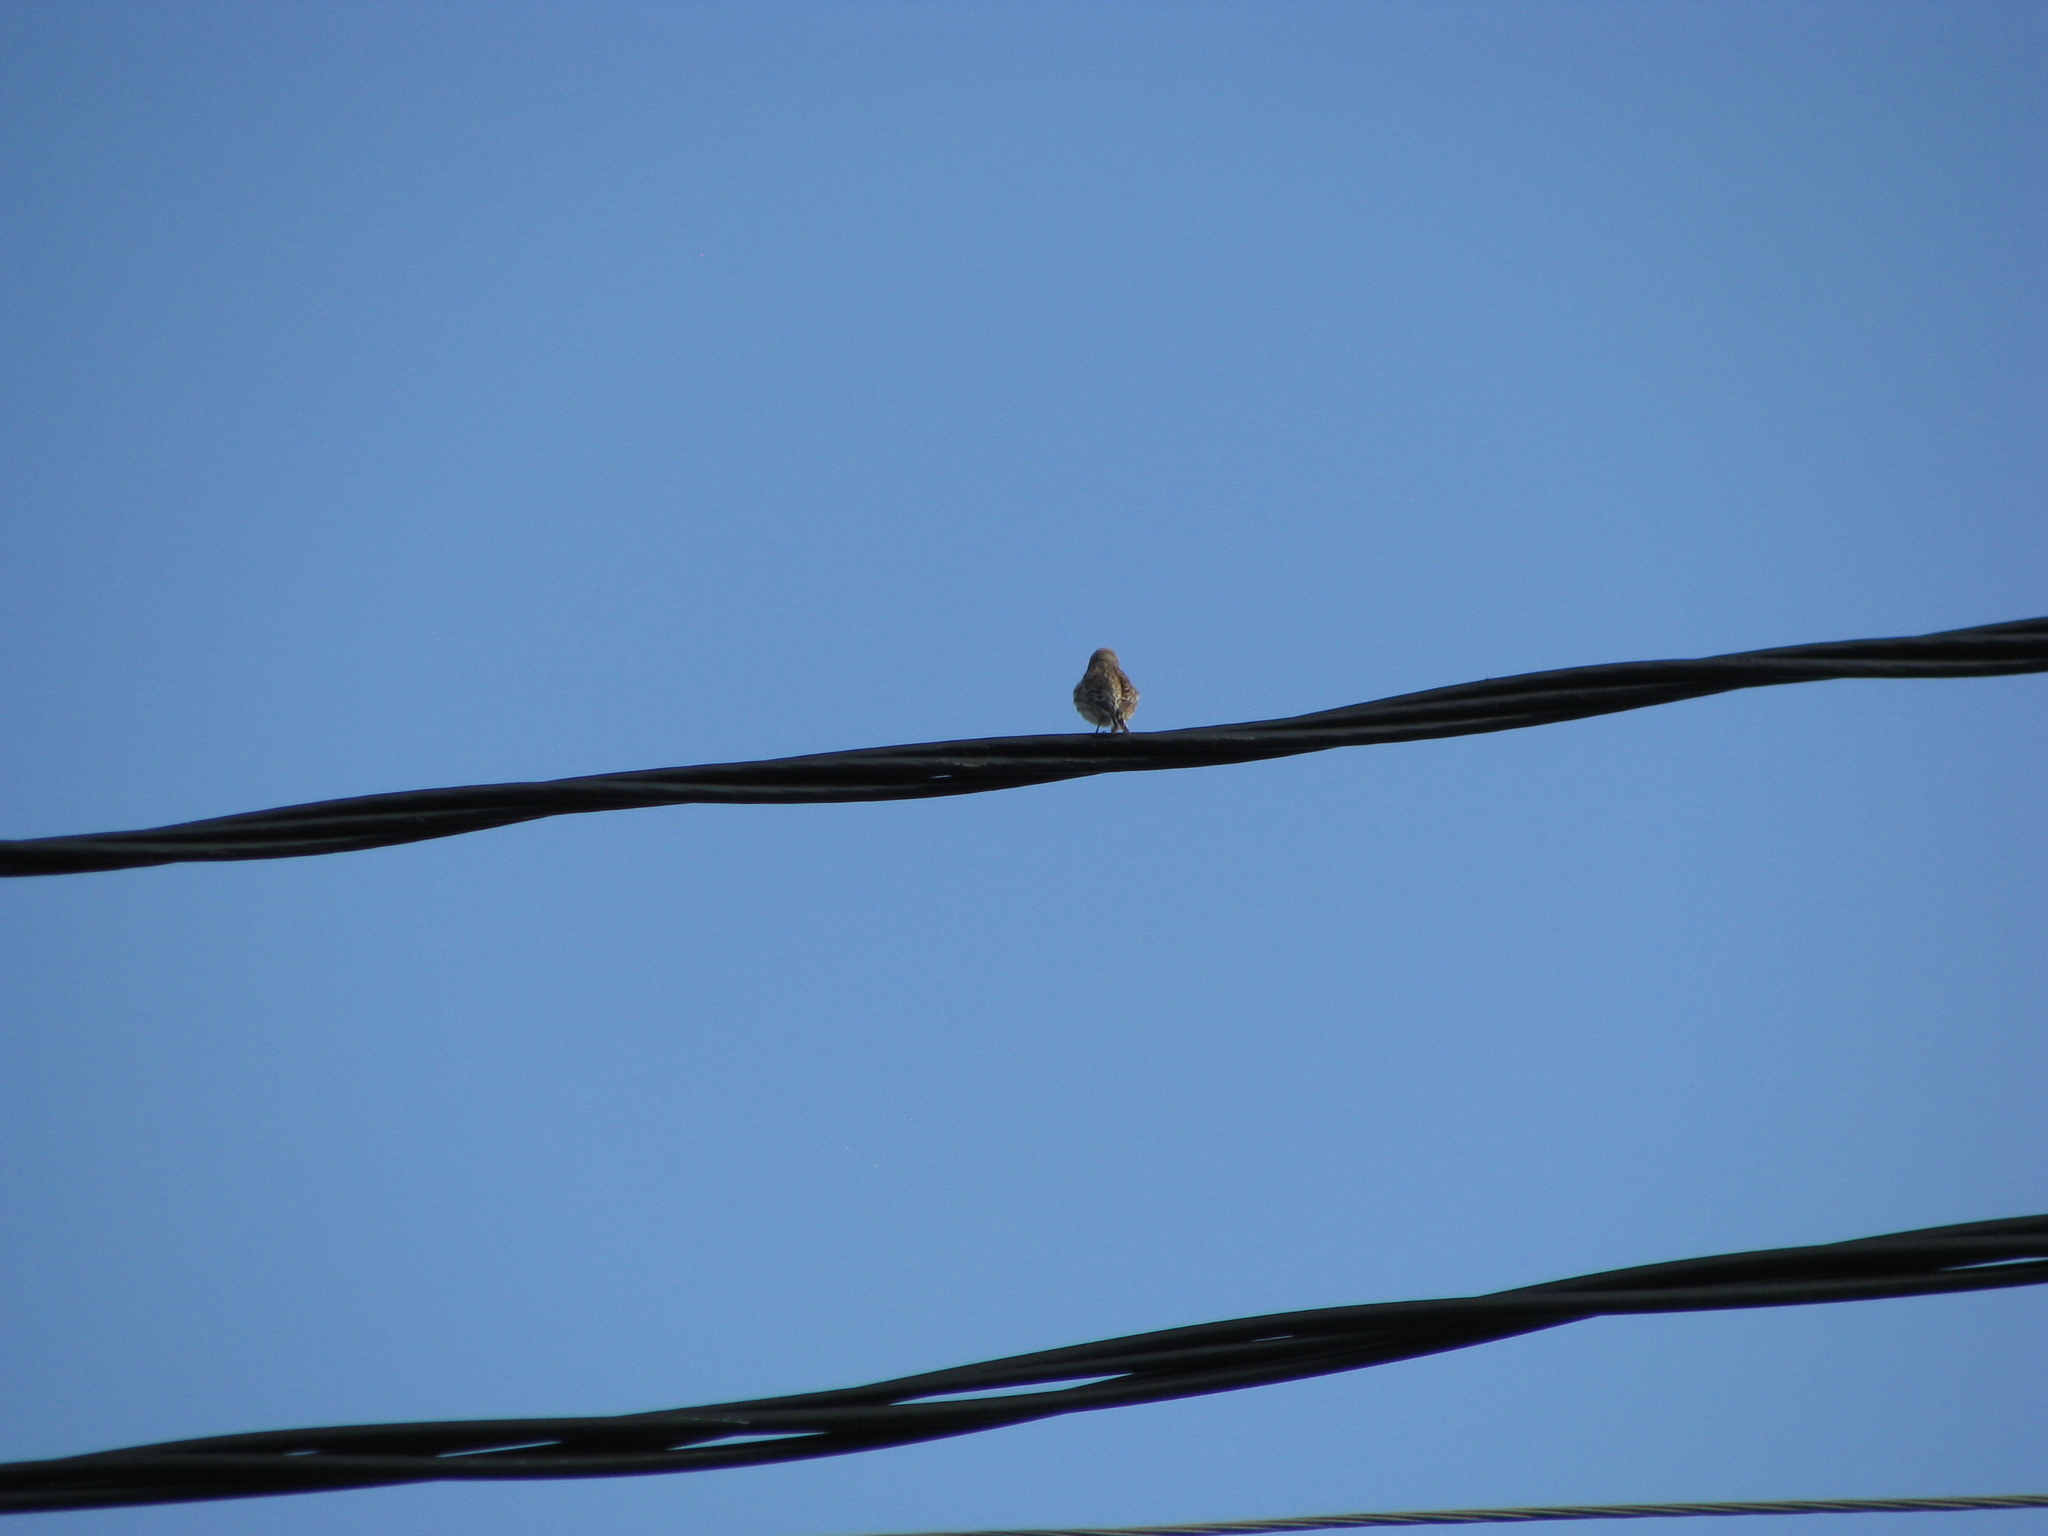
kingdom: Animalia
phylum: Chordata
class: Aves
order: Passeriformes
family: Fringillidae
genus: Linaria
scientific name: Linaria cannabina
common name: Common linnet
